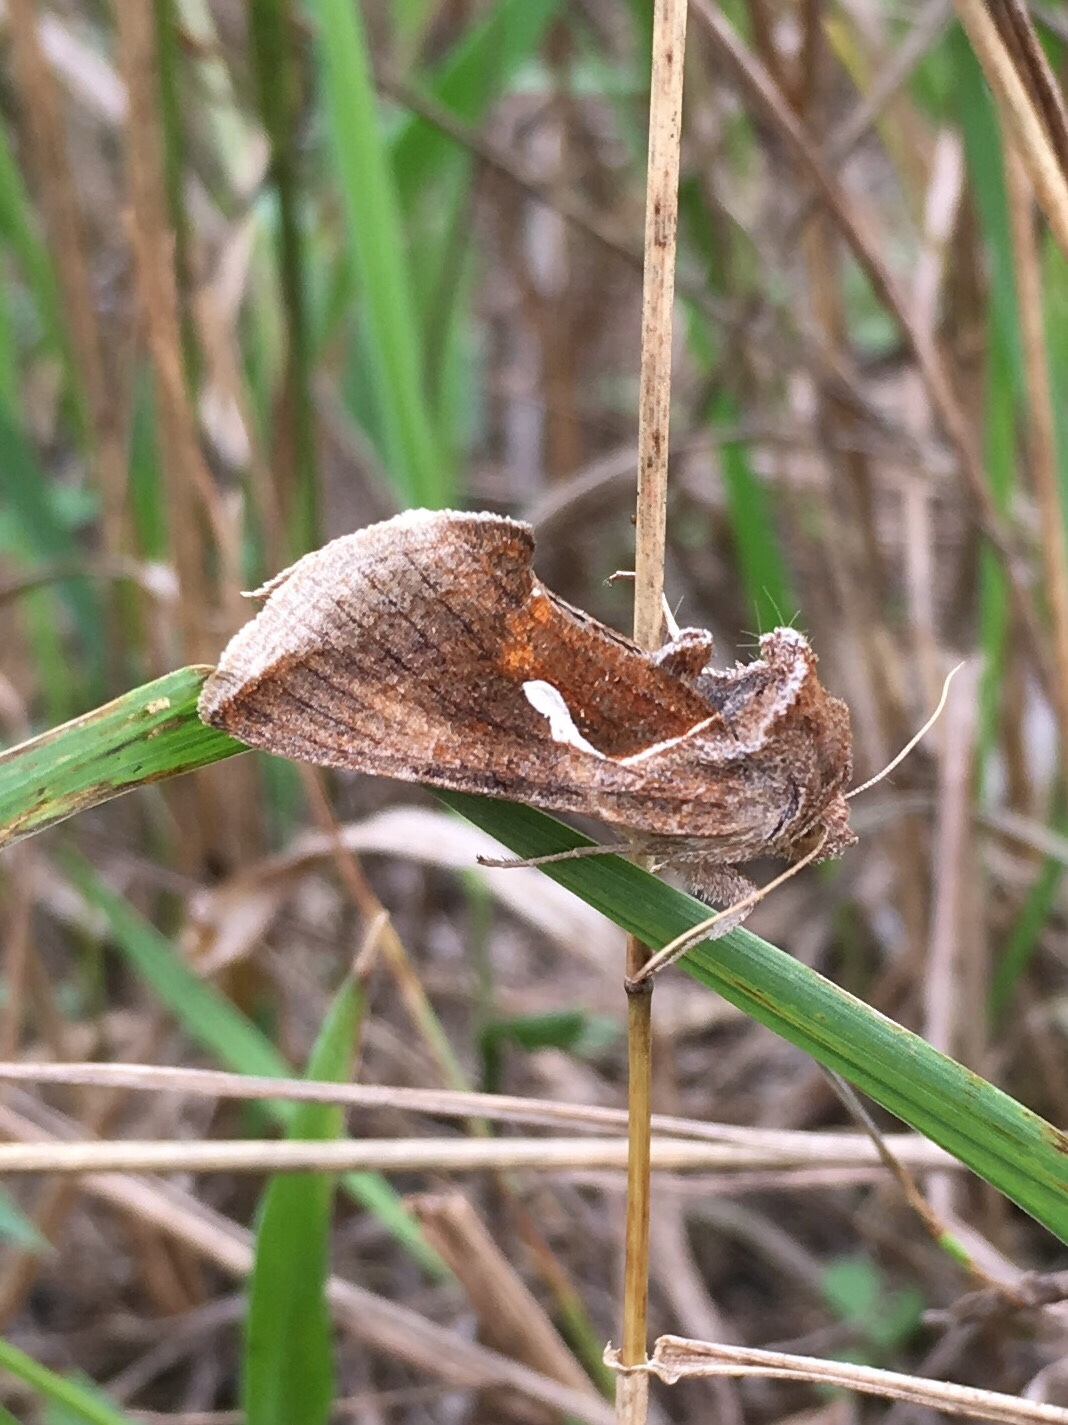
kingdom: Animalia
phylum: Arthropoda
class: Insecta
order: Lepidoptera
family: Noctuidae
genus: Anagrapha
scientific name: Anagrapha falcifera
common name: Celery looper
